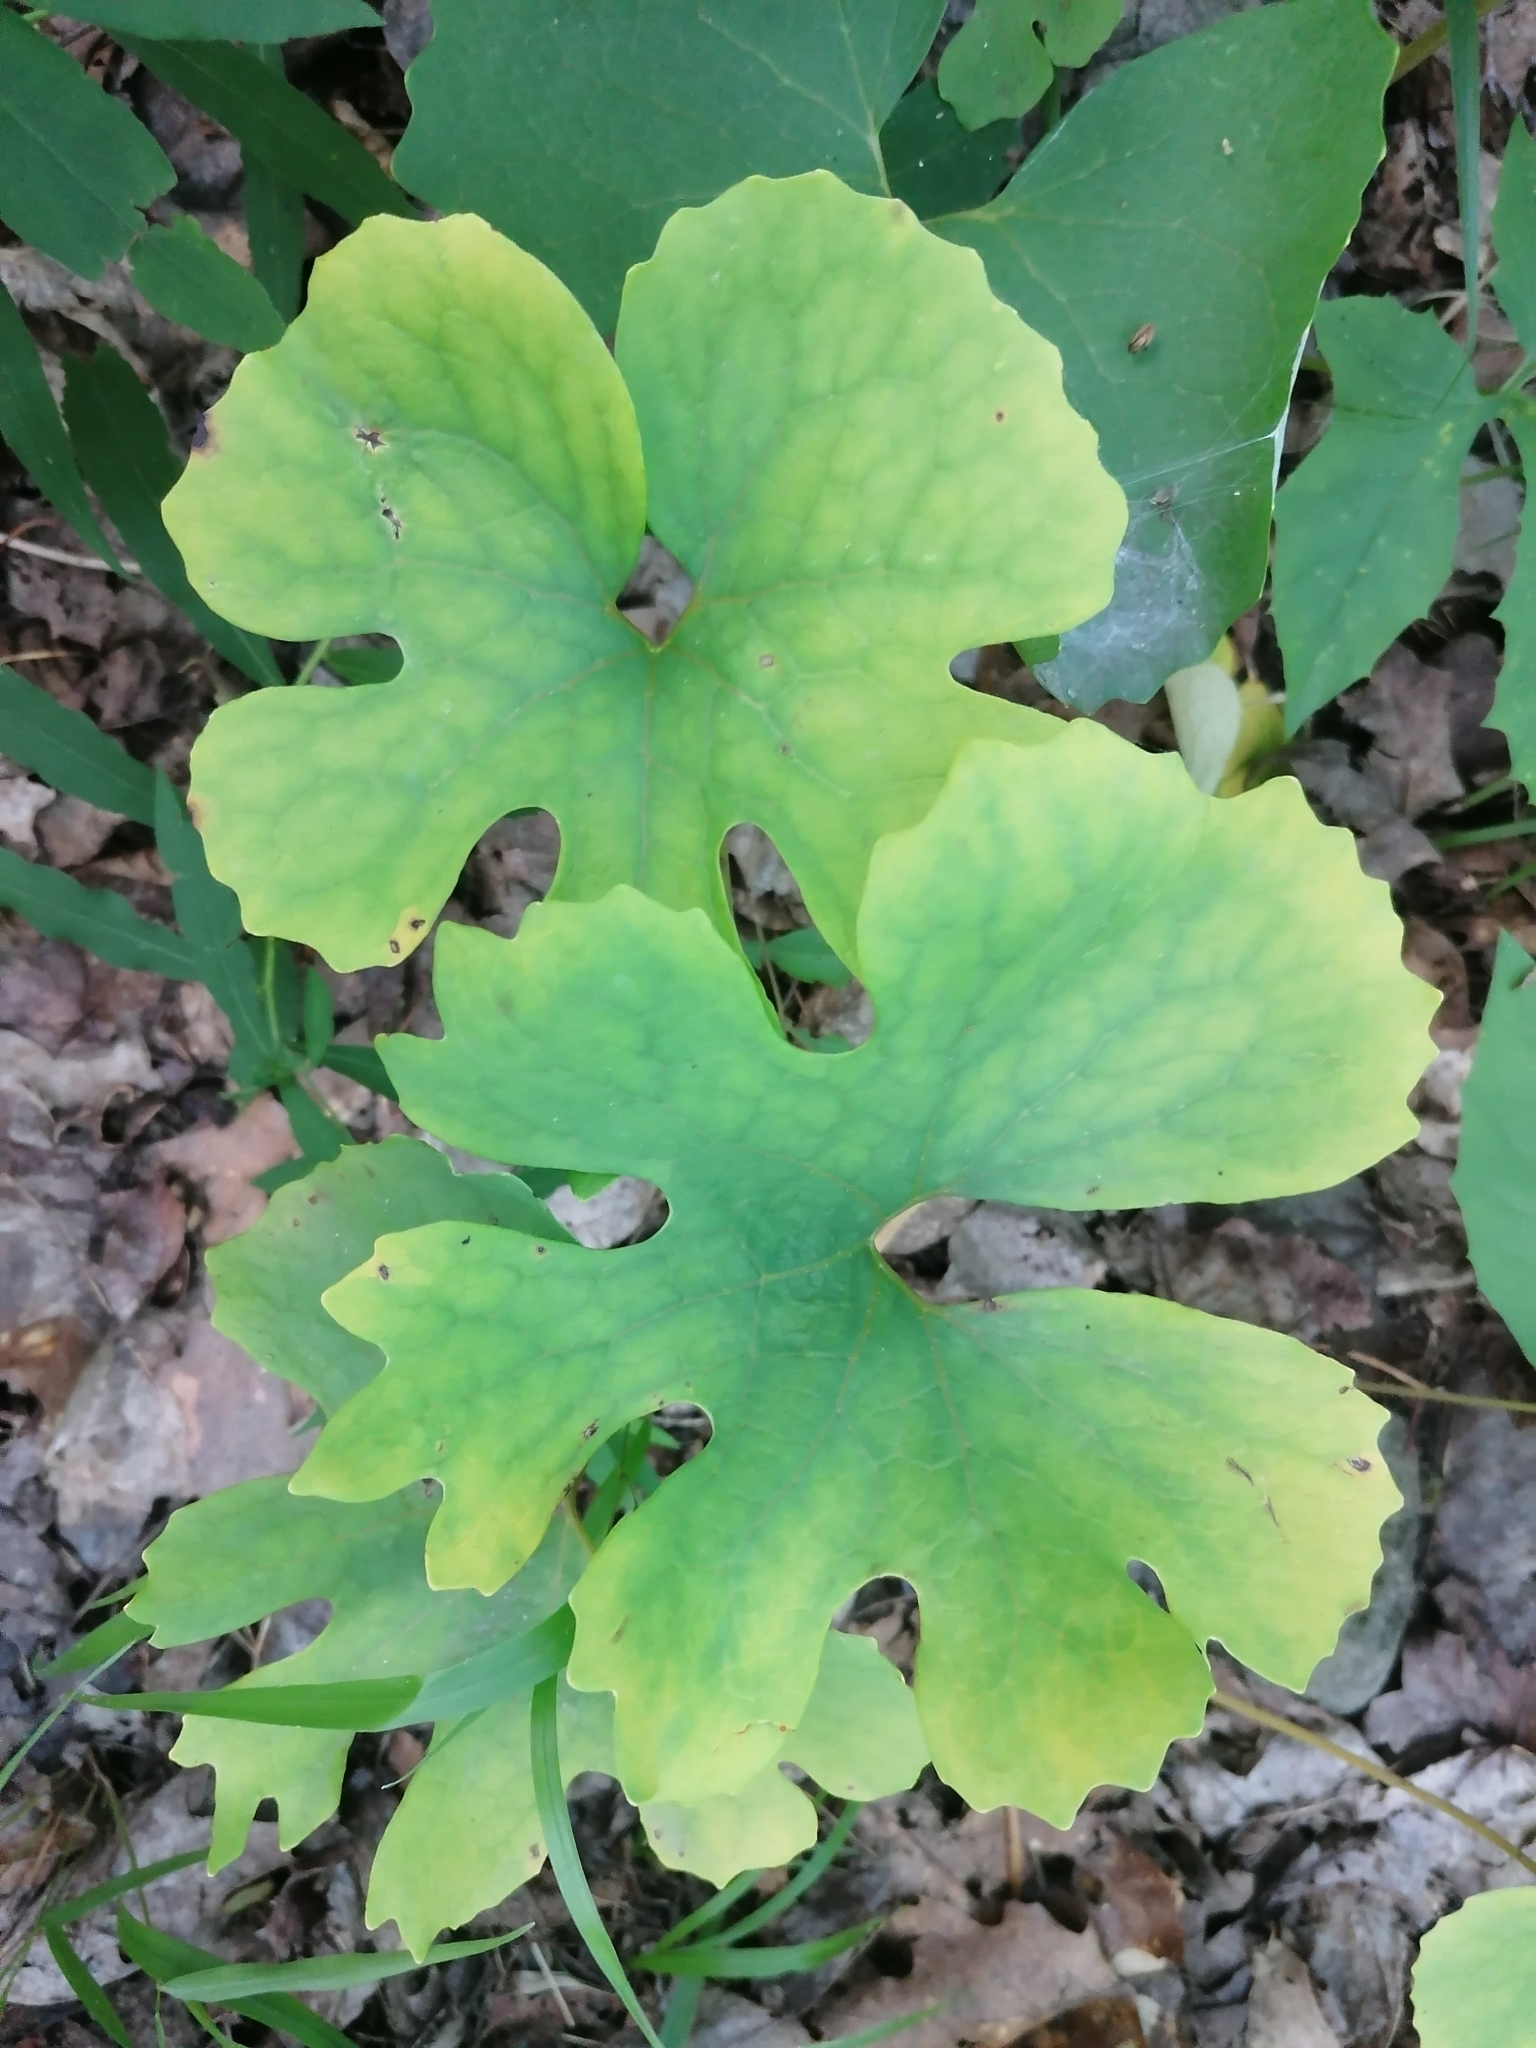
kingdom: Plantae
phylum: Tracheophyta
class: Magnoliopsida
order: Ranunculales
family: Papaveraceae
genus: Sanguinaria
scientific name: Sanguinaria canadensis
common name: Bloodroot
